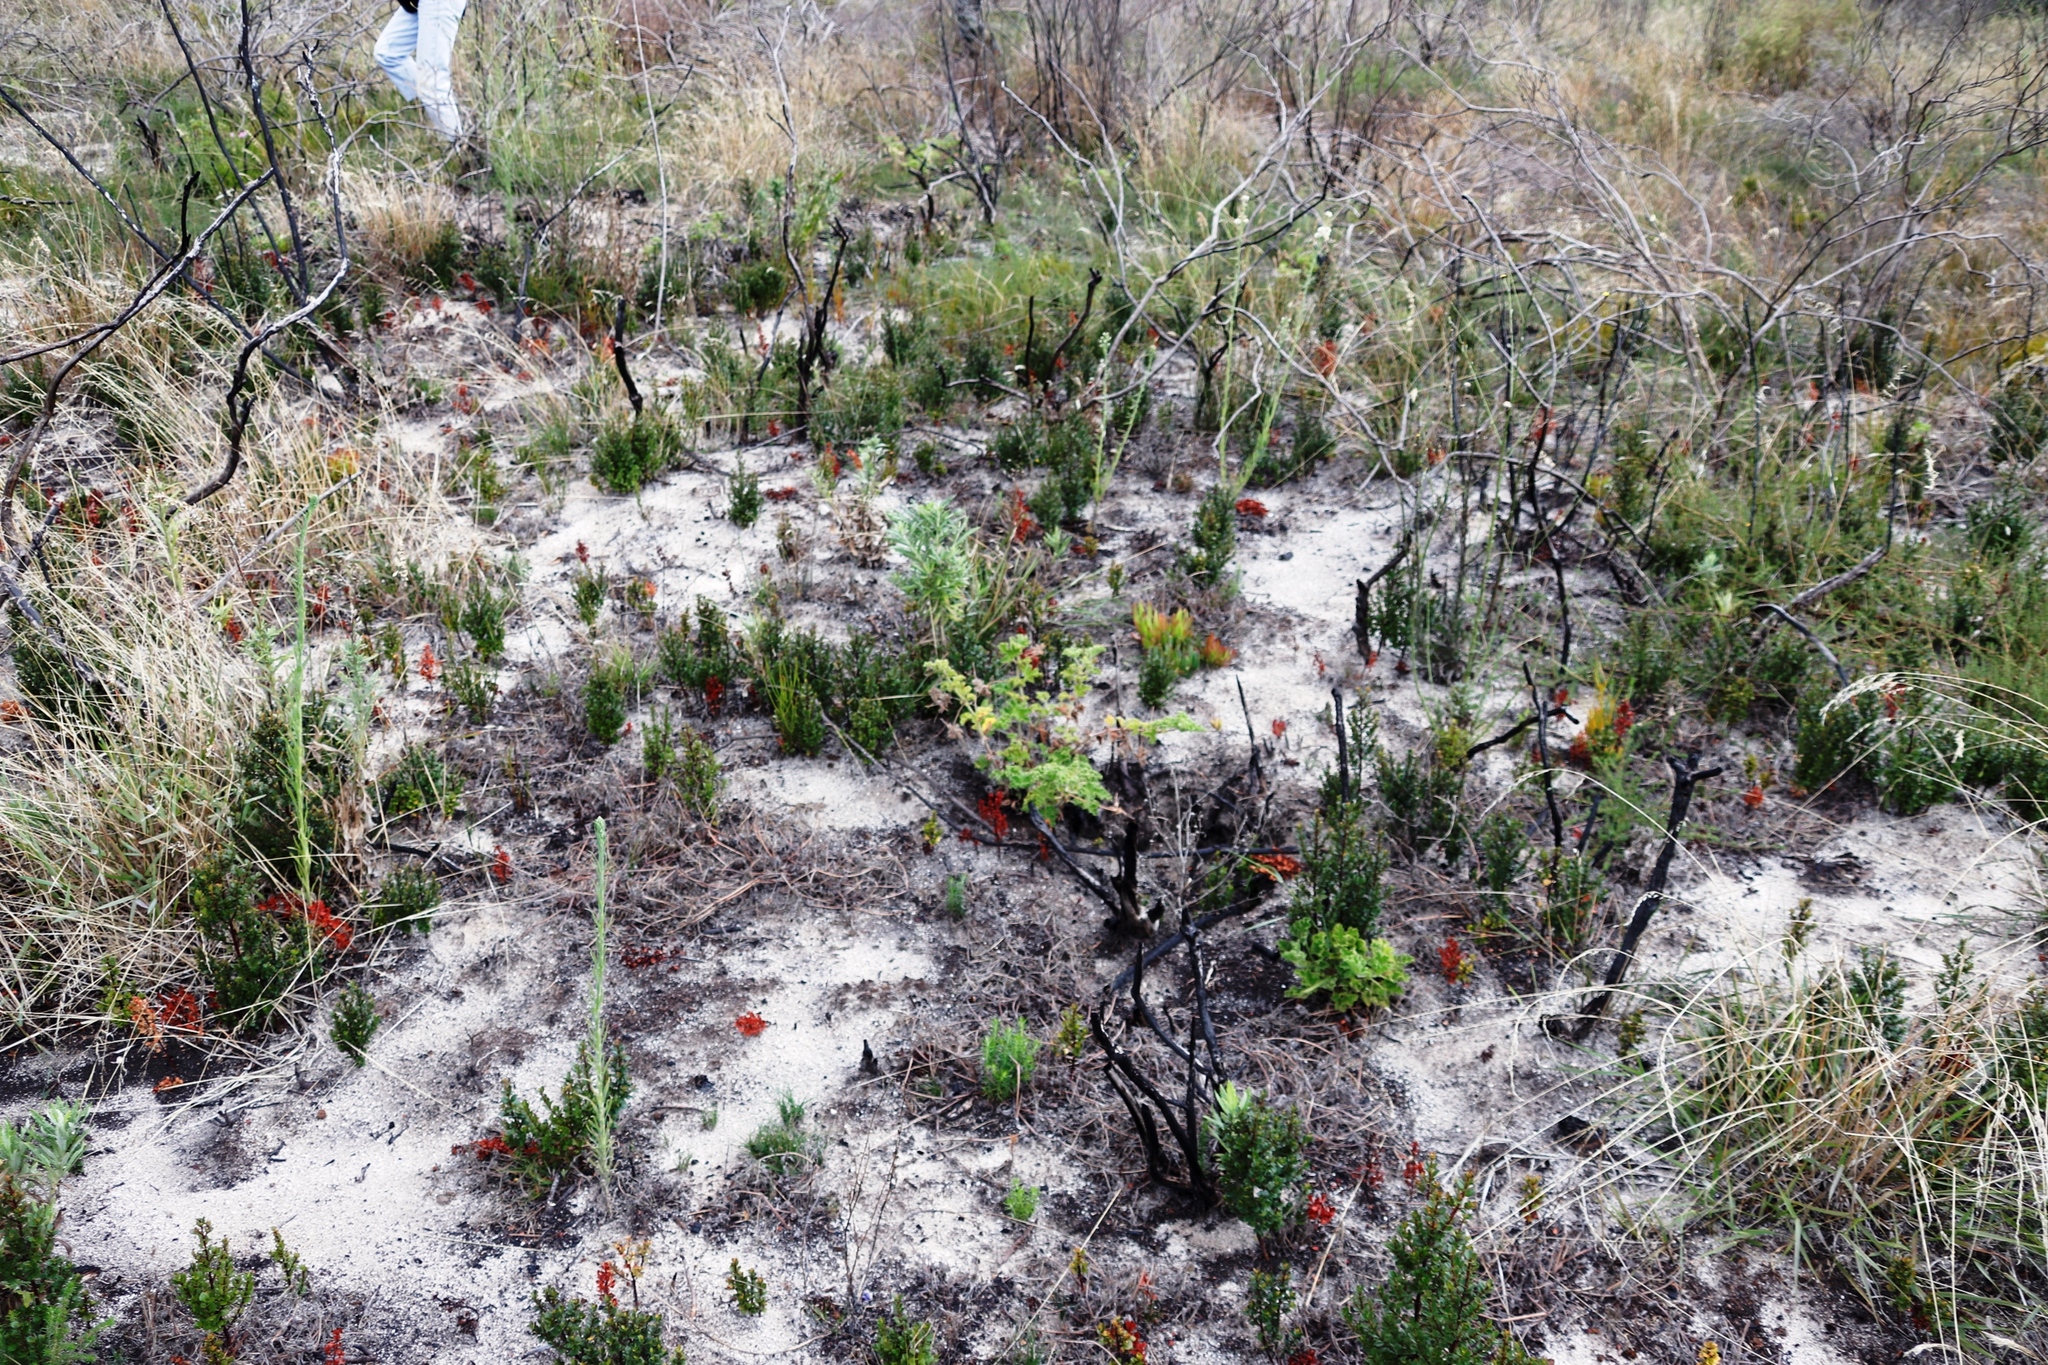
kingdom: Plantae
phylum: Tracheophyta
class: Magnoliopsida
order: Ericales
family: Primulaceae
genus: Myrsine
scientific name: Myrsine africana
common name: African-boxwood
